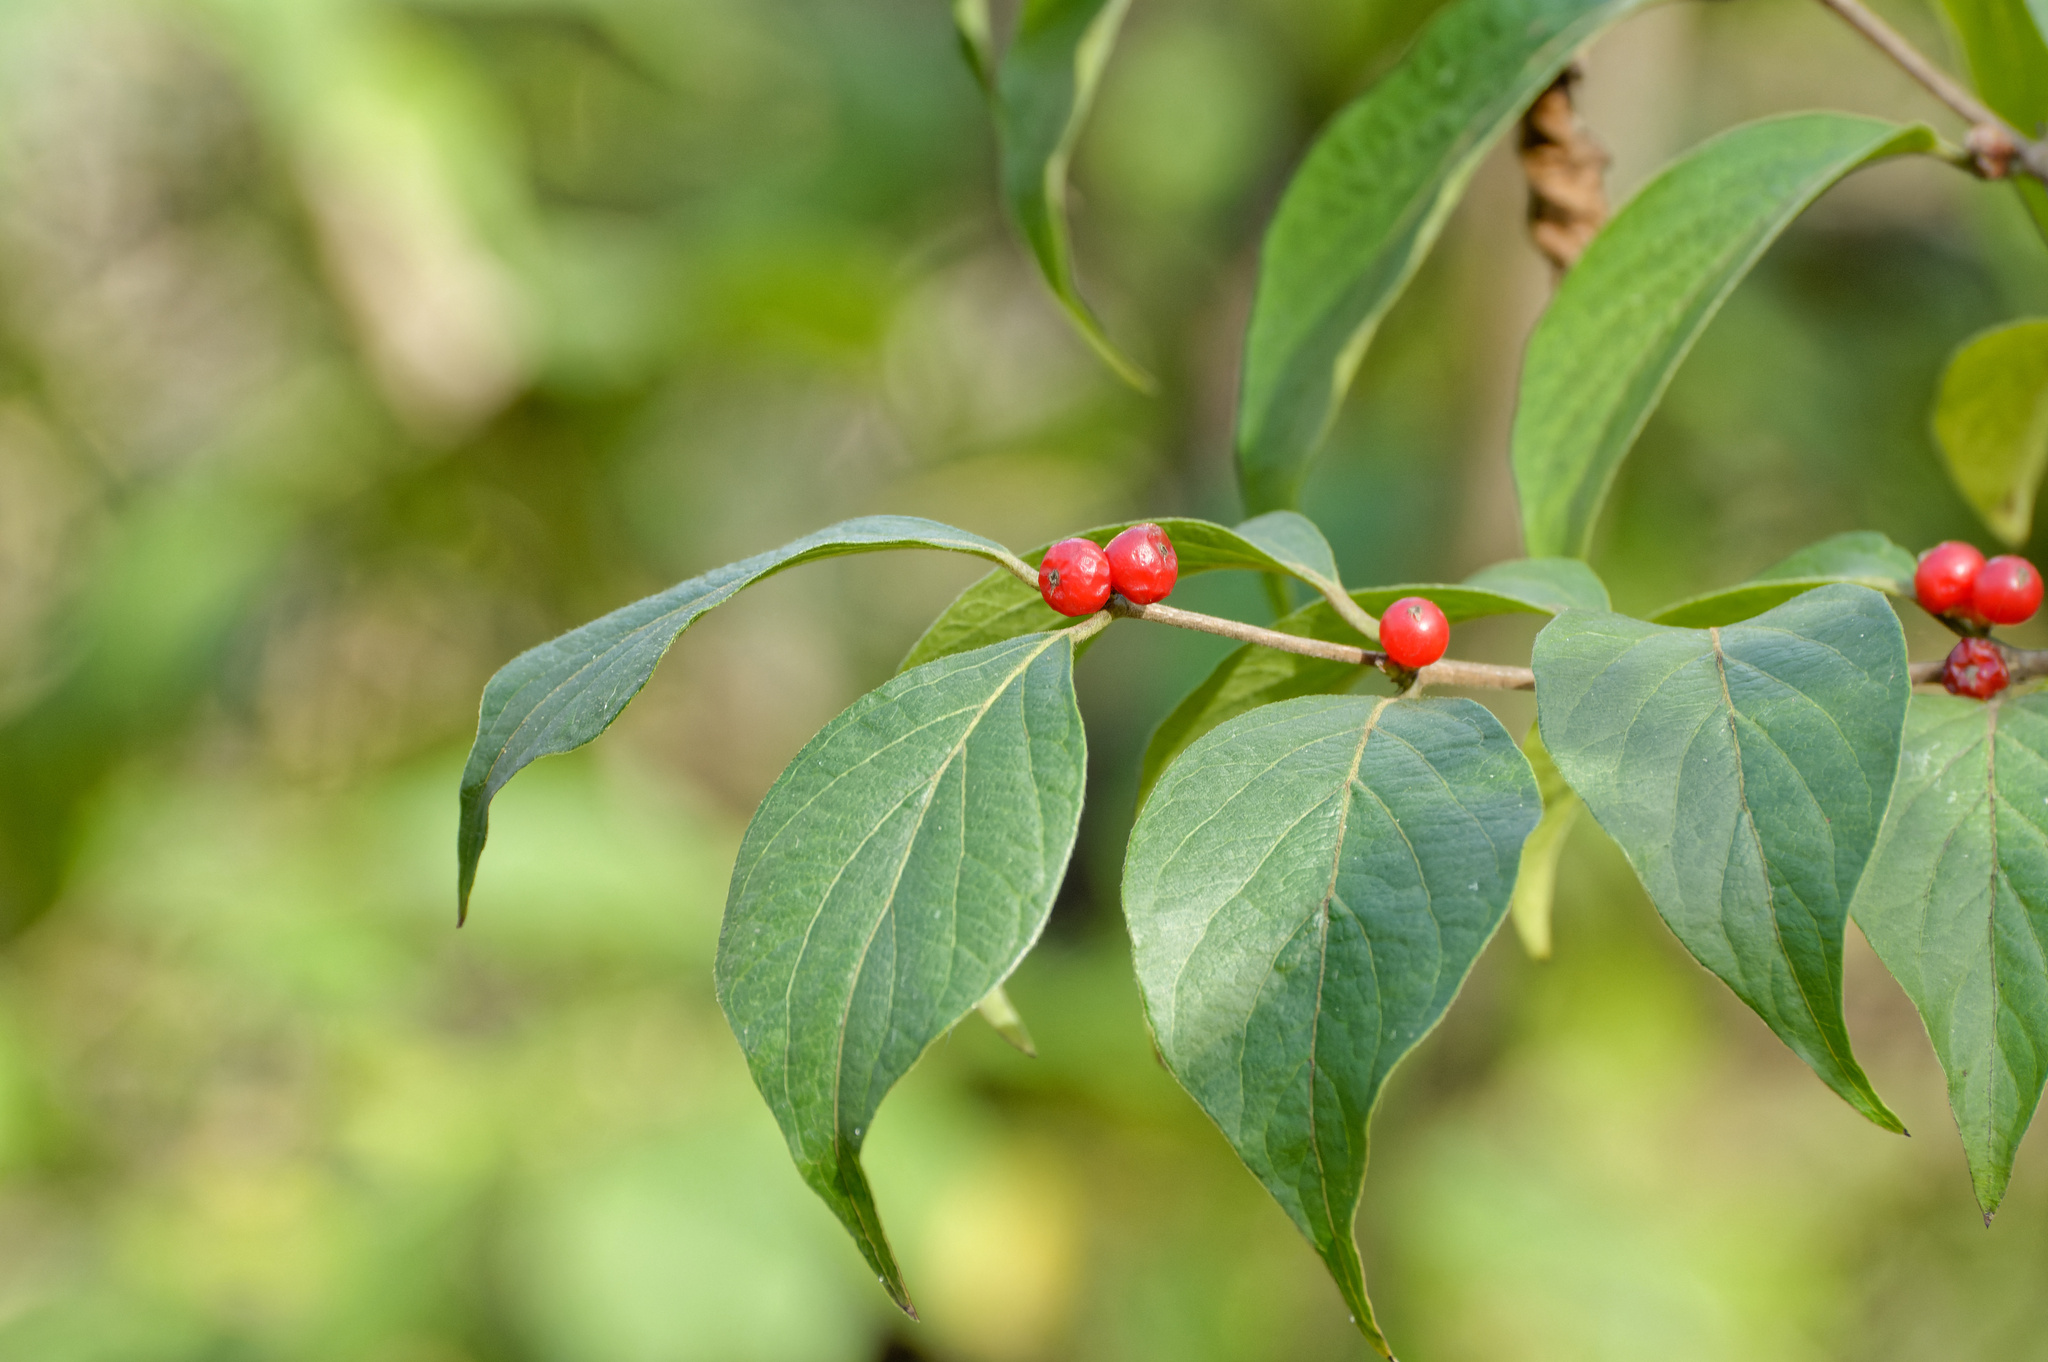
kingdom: Plantae
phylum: Tracheophyta
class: Magnoliopsida
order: Dipsacales
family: Caprifoliaceae
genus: Lonicera
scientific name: Lonicera maackii
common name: Amur honeysuckle
